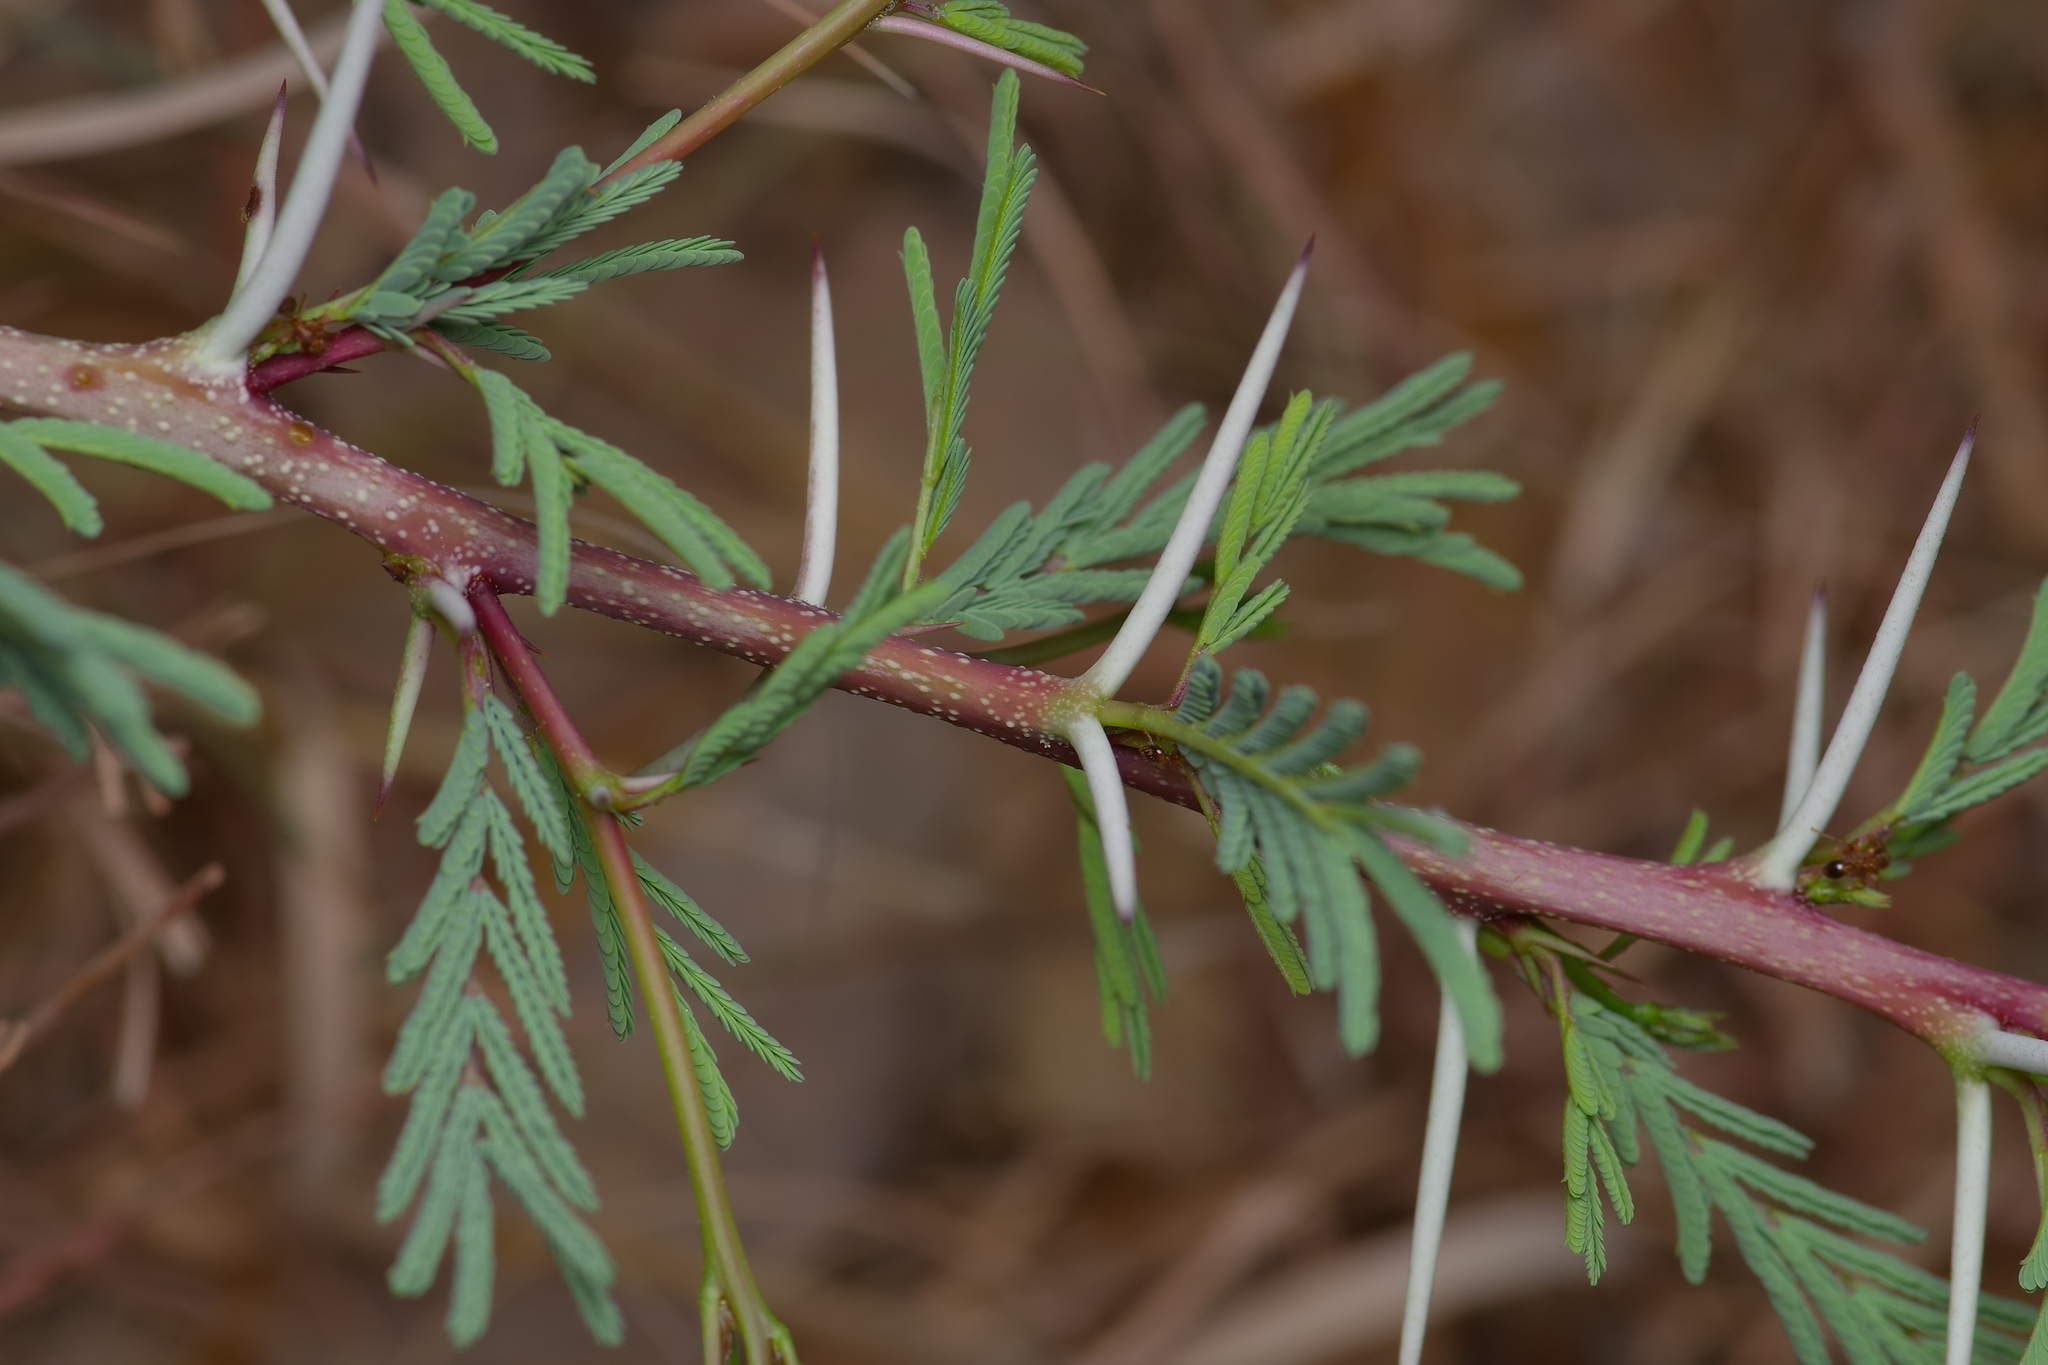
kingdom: Plantae
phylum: Tracheophyta
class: Magnoliopsida
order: Fabales
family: Fabaceae
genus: Vachellia
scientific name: Vachellia farnesiana
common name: Sweet acacia
